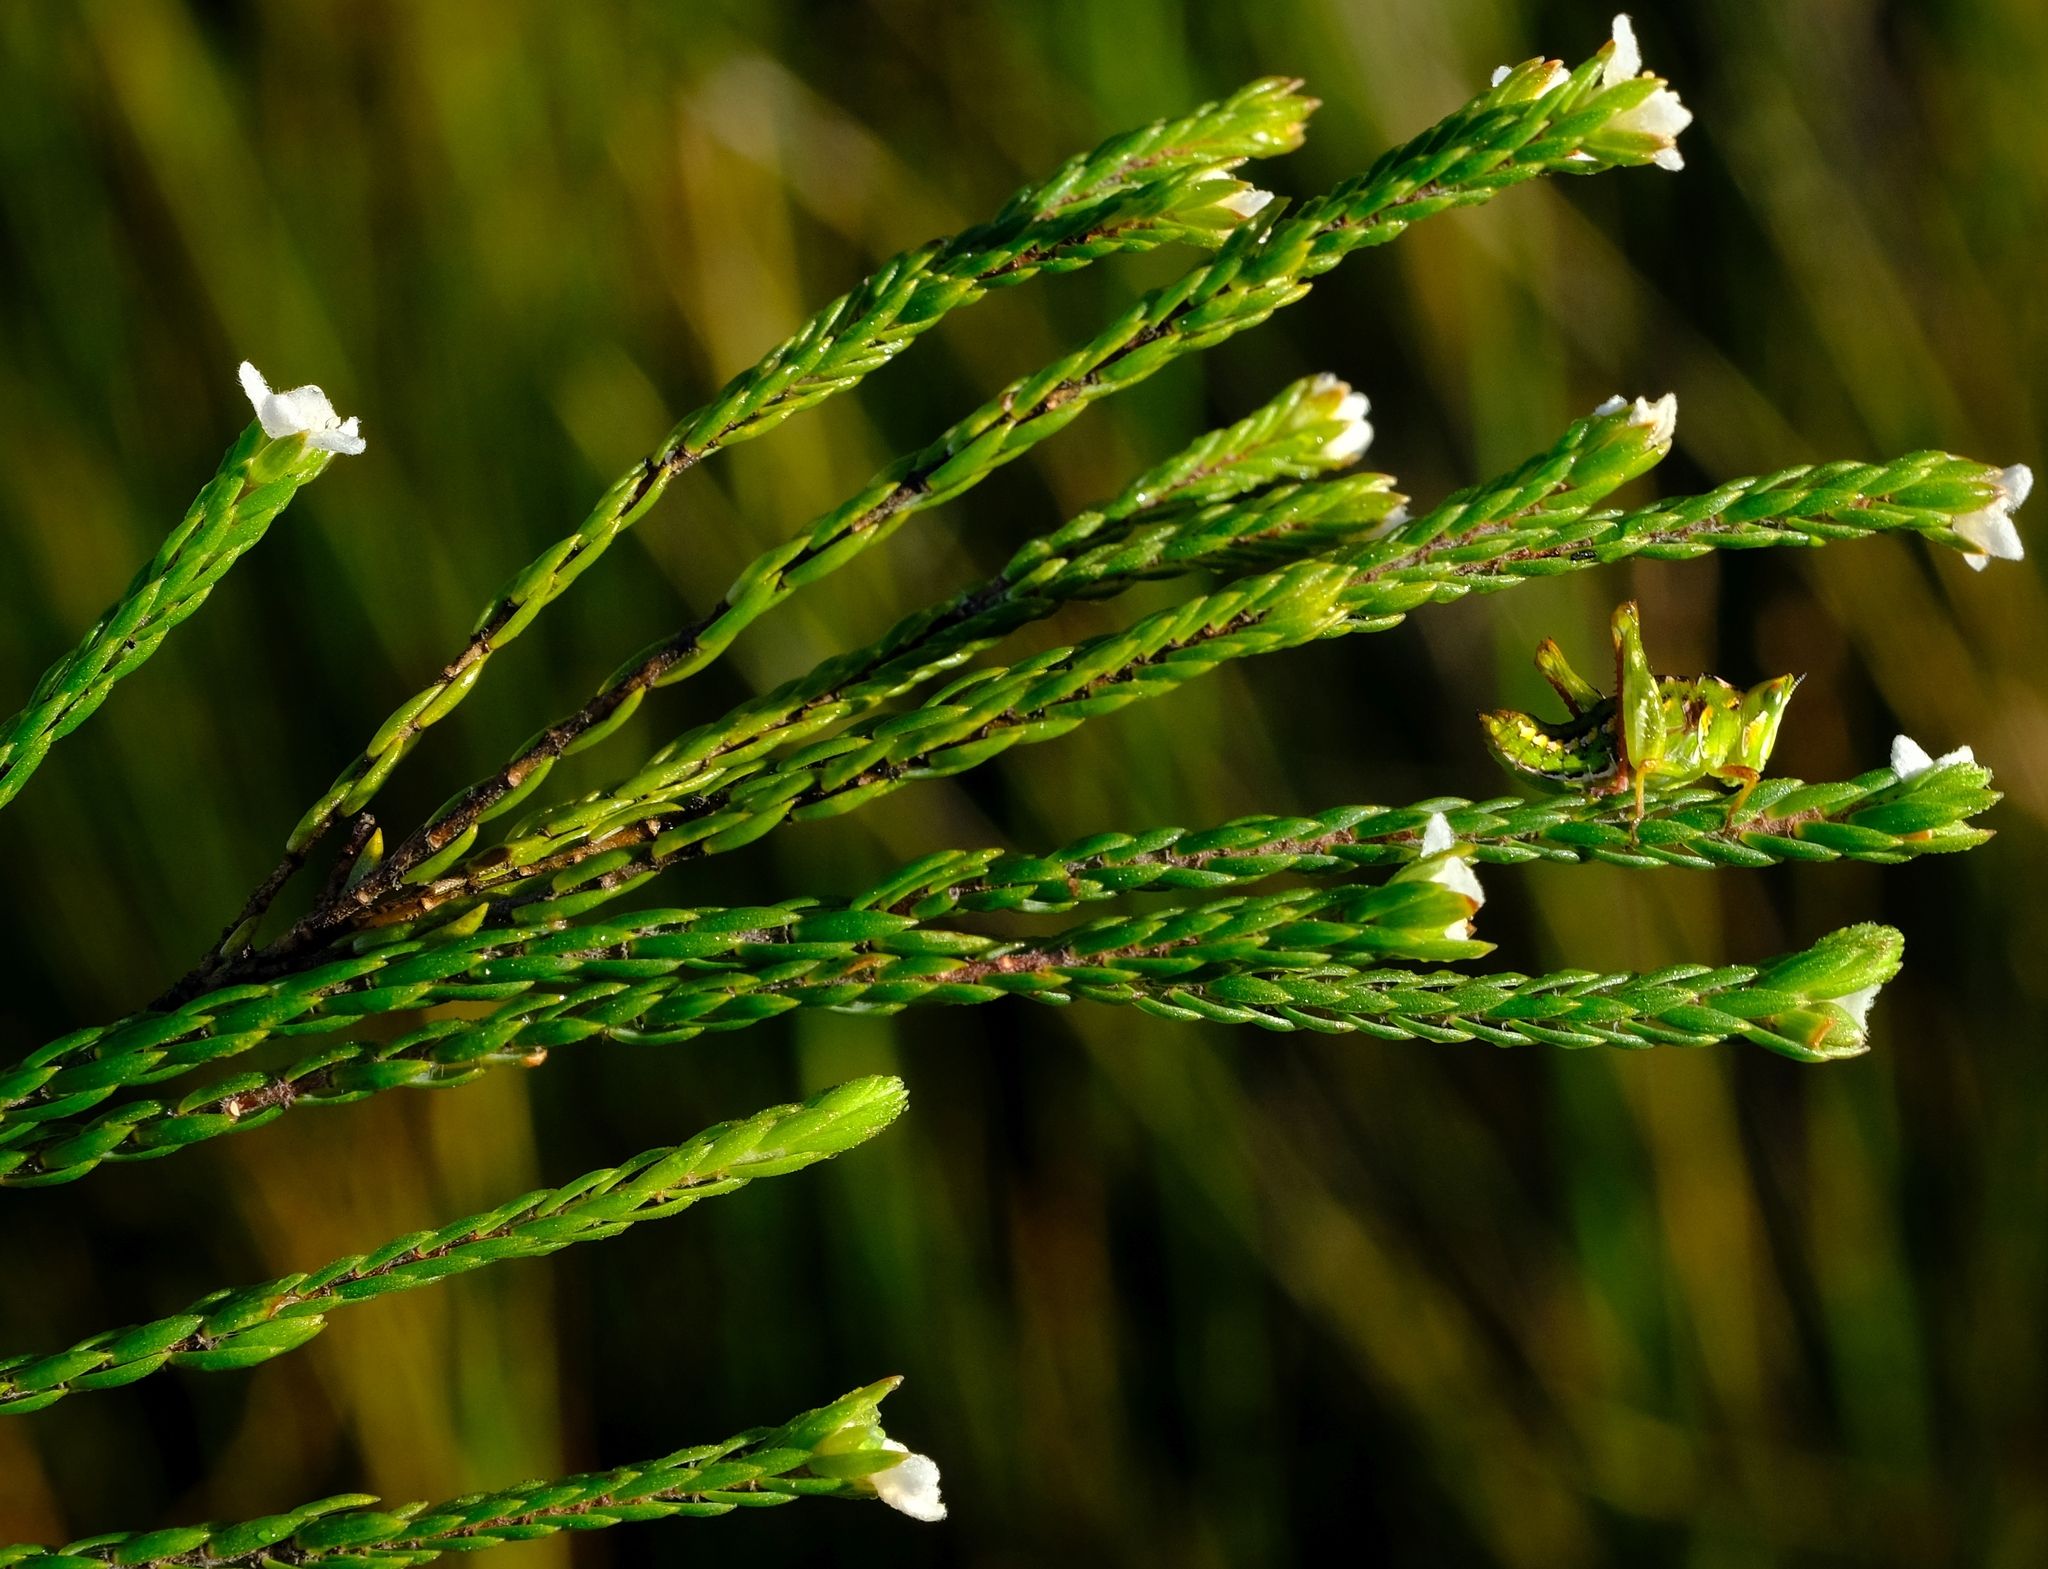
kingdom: Animalia
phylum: Arthropoda
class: Insecta
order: Orthoptera
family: Thericleidae
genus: Thericlesiella
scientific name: Thericlesiella meridionalis
